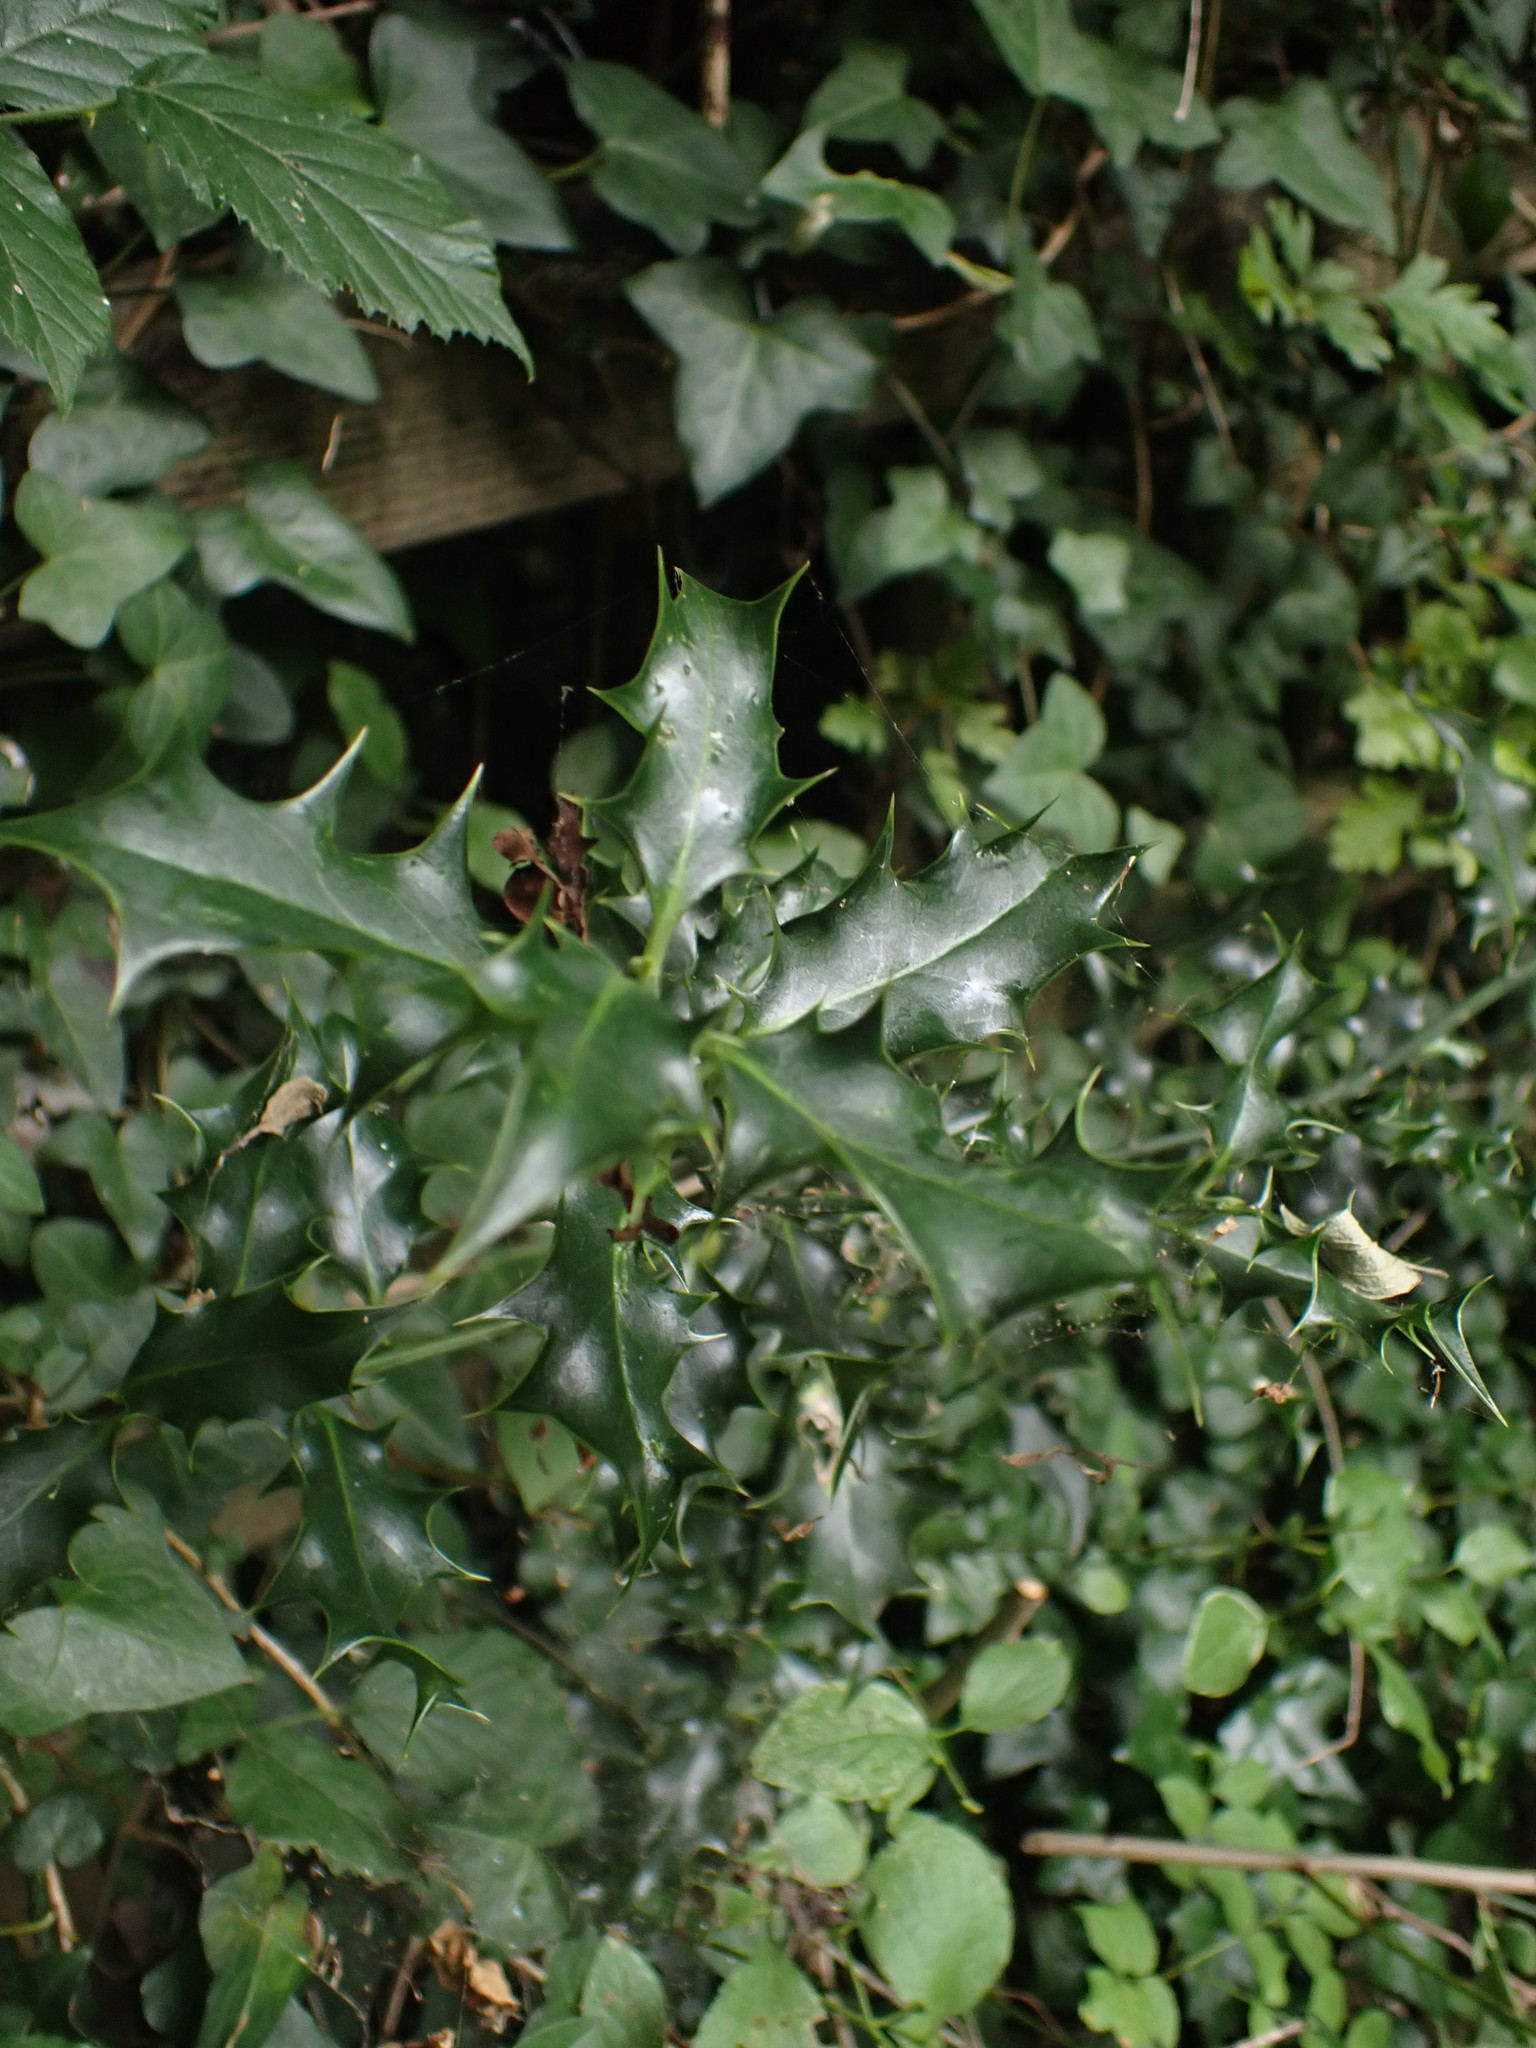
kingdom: Plantae
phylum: Tracheophyta
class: Magnoliopsida
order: Aquifoliales
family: Aquifoliaceae
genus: Ilex
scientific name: Ilex aquifolium
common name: English holly
